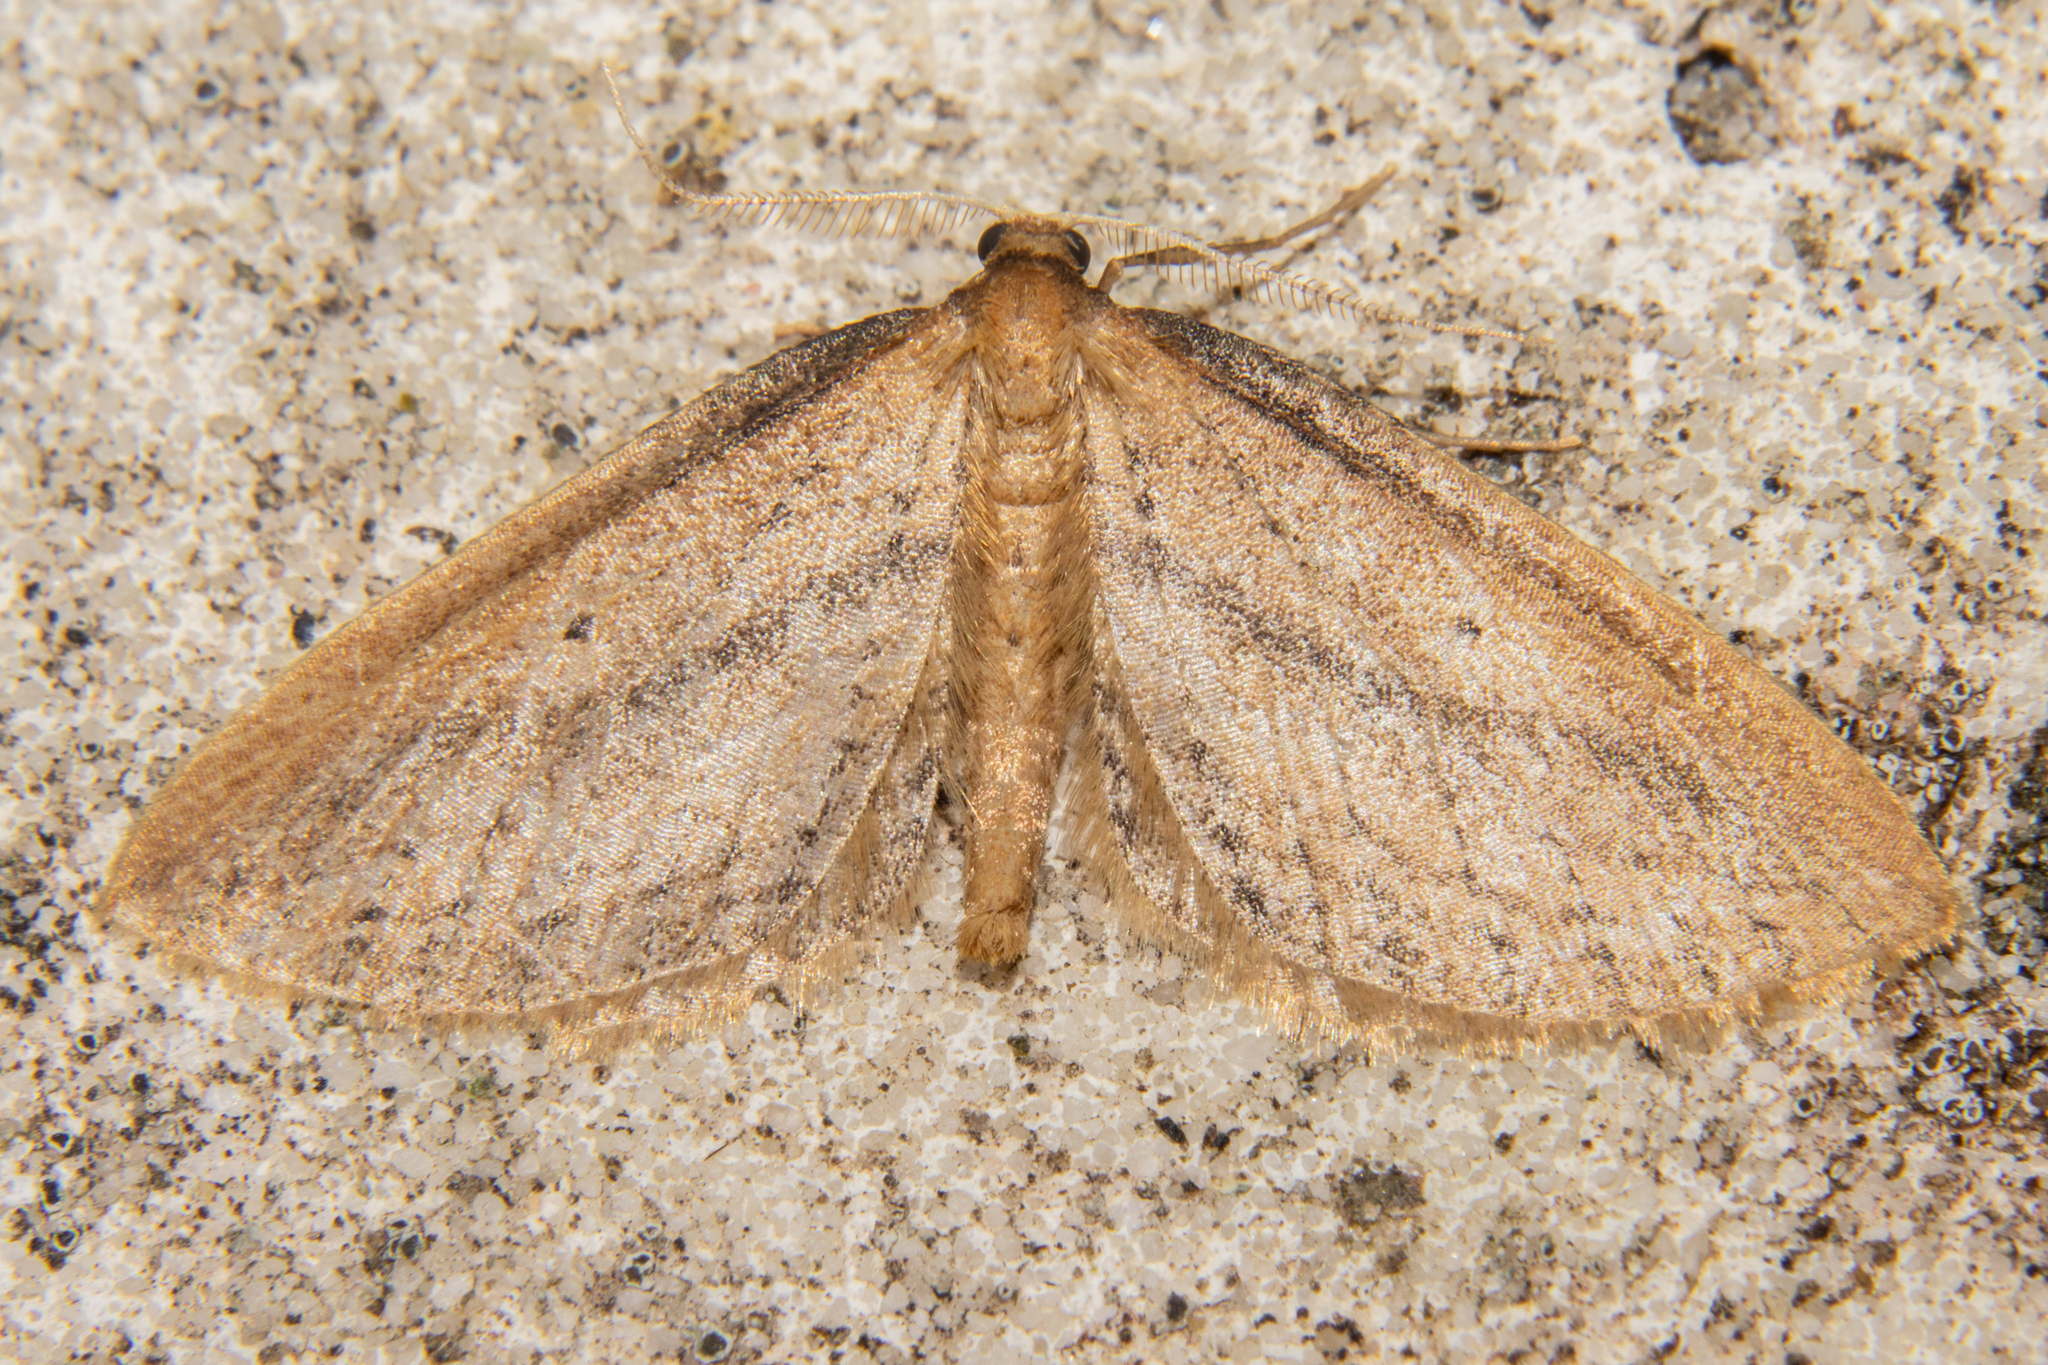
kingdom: Animalia
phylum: Arthropoda
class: Insecta
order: Lepidoptera
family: Geometridae
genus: Epiphryne
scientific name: Epiphryne charidema
